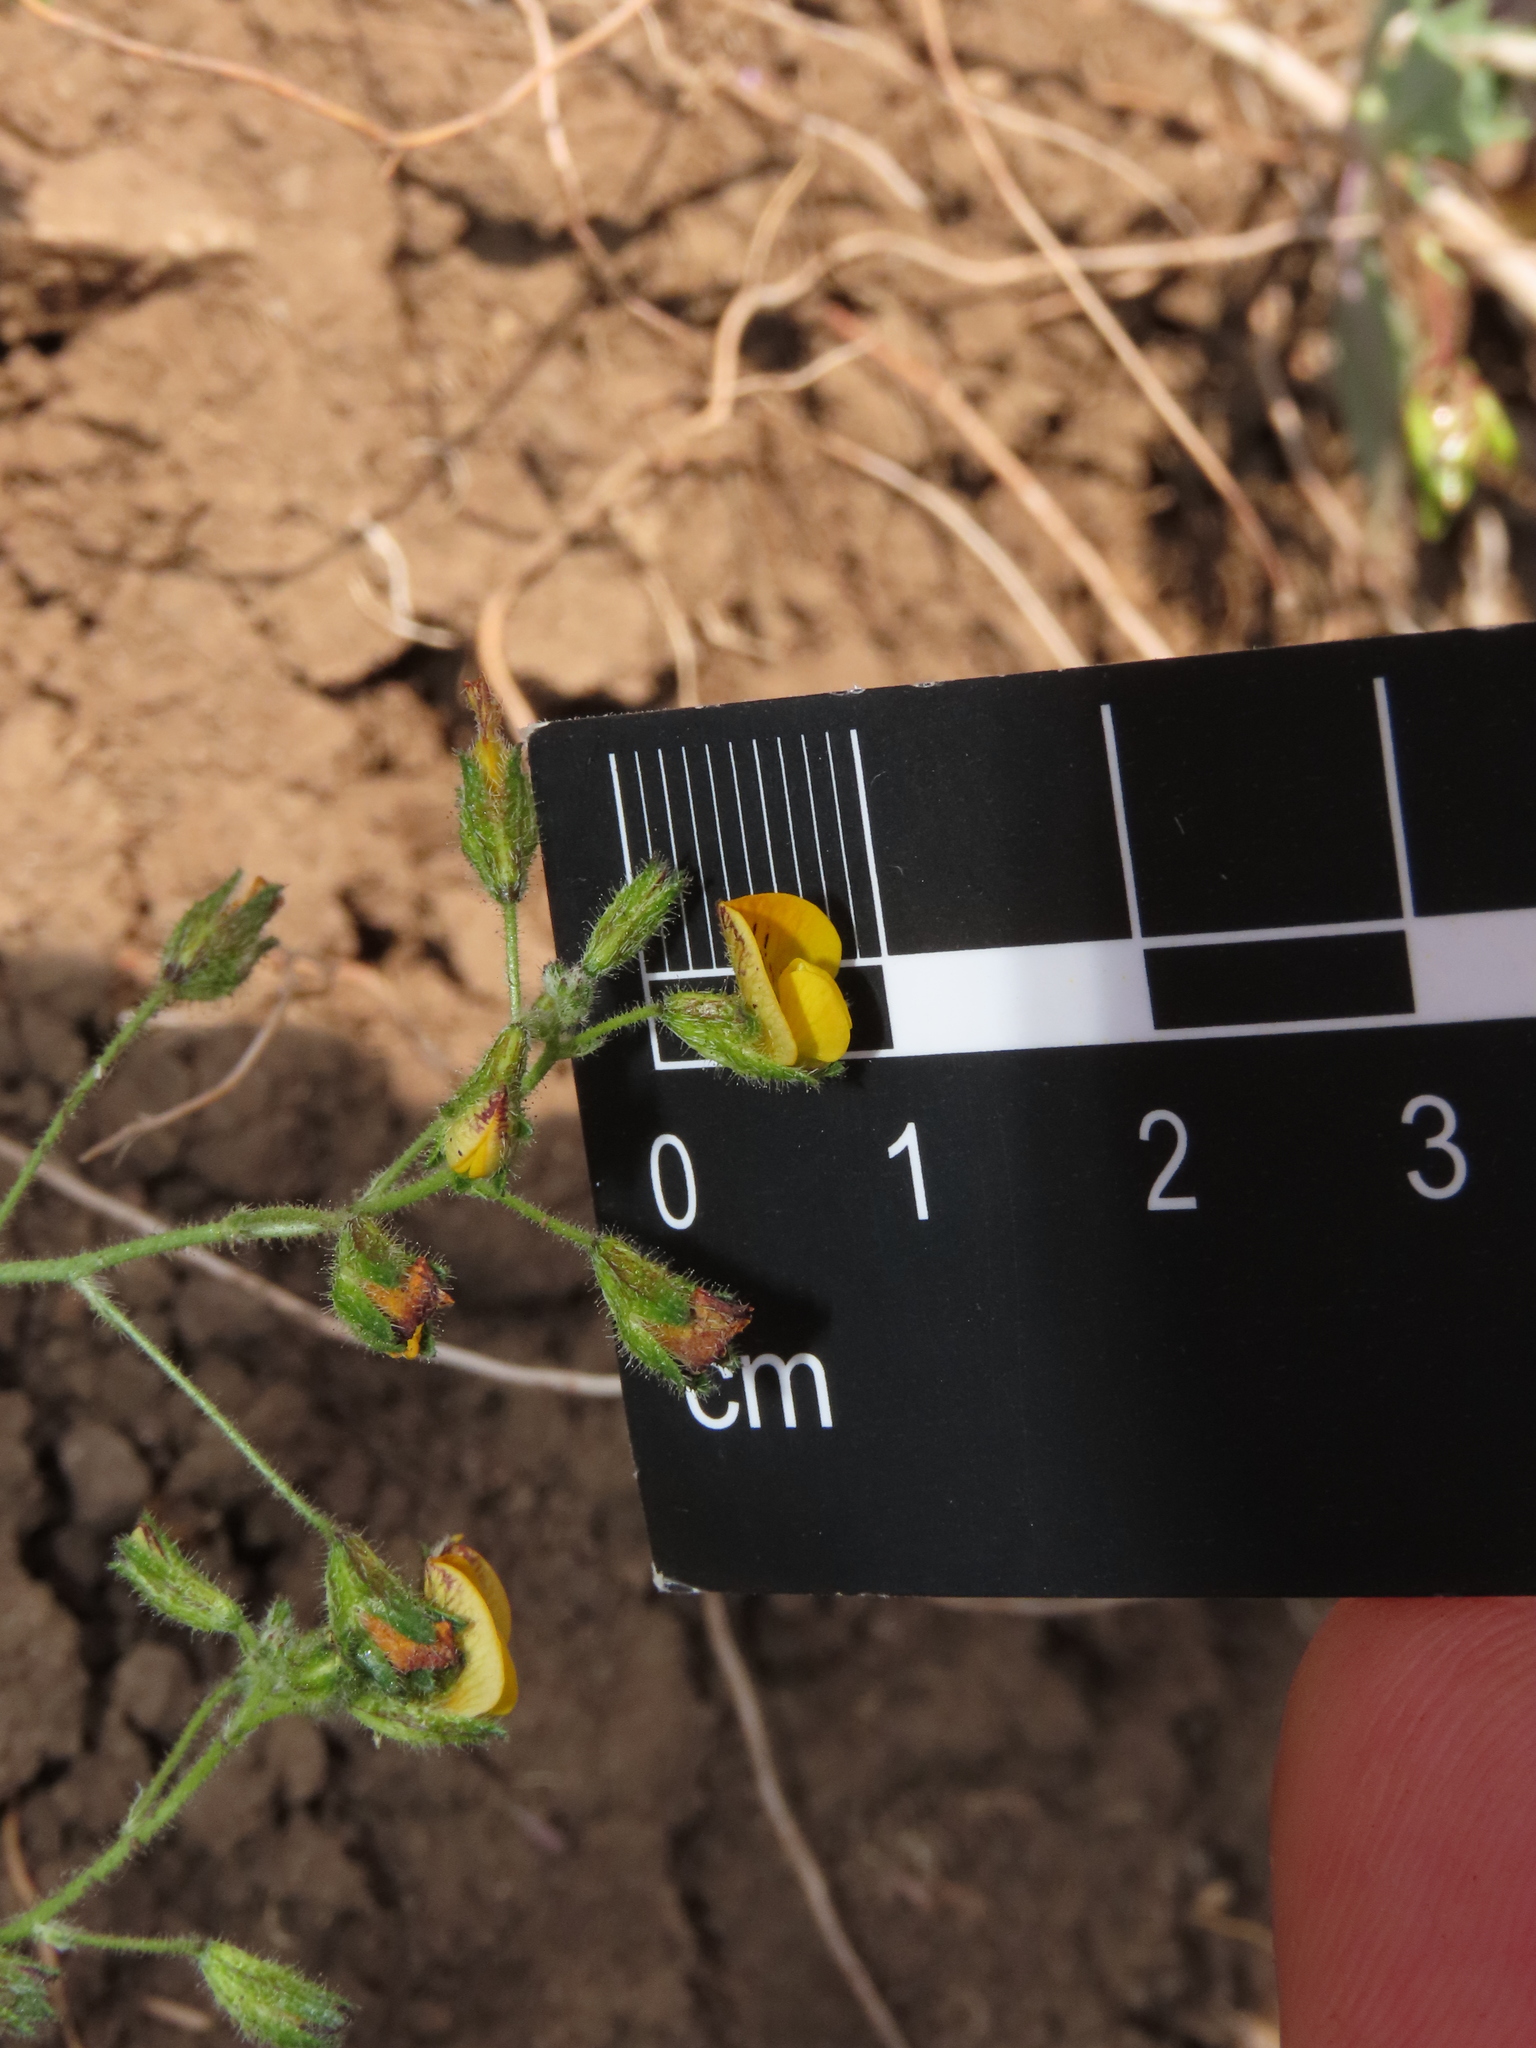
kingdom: Plantae
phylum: Tracheophyta
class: Magnoliopsida
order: Fabales
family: Fabaceae
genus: Adesmia
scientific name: Adesmia tenella
